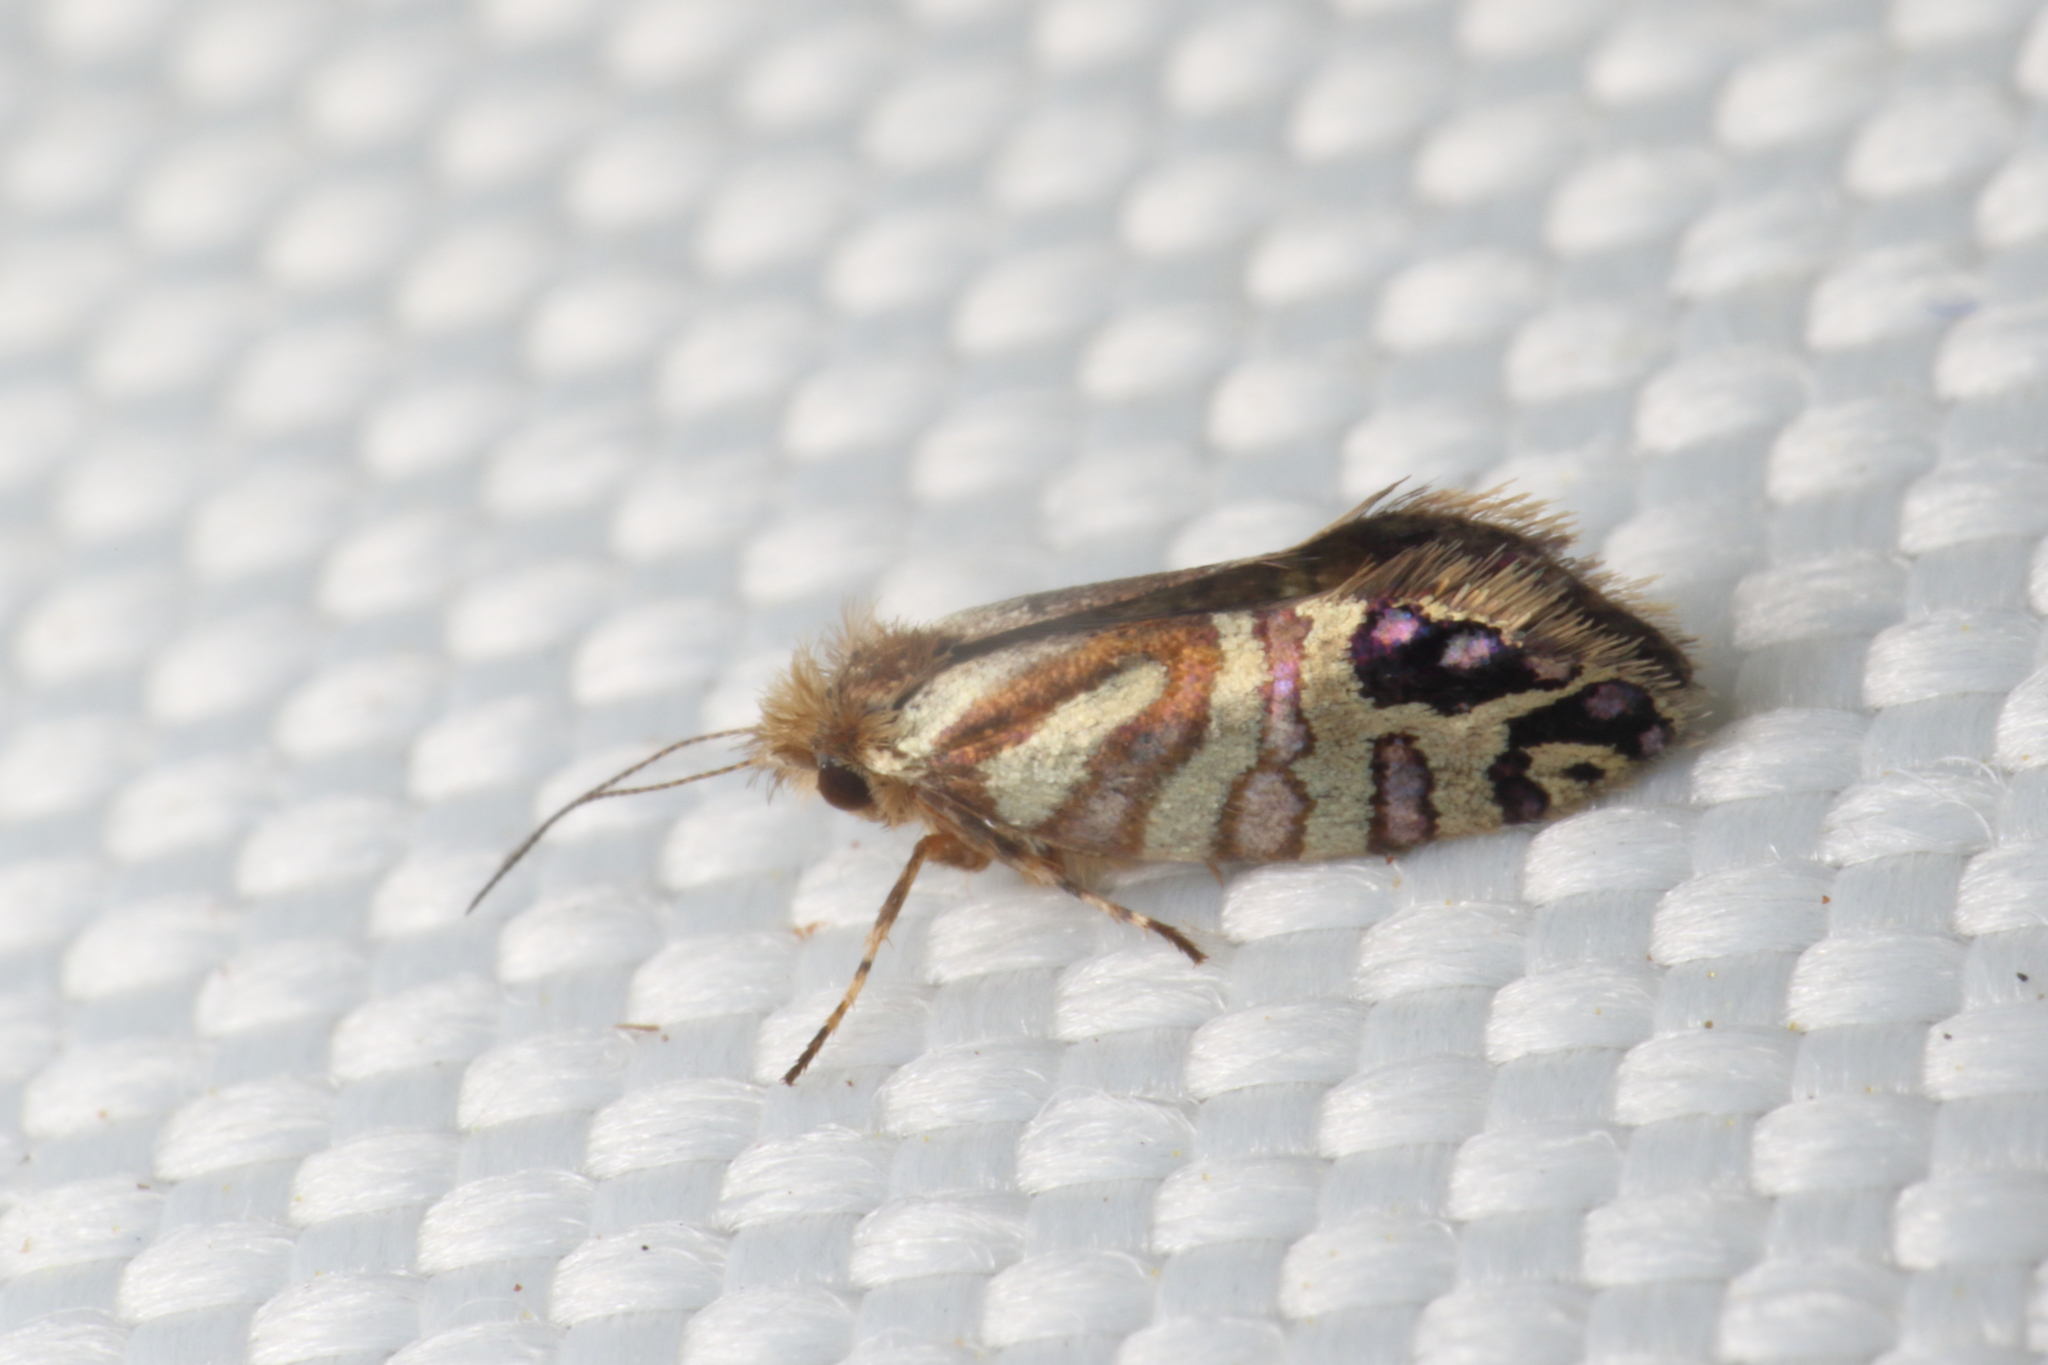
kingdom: Animalia
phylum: Arthropoda
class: Insecta
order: Lepidoptera
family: Micropterigidae
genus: Sabatinca
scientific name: Sabatinca doroxena
